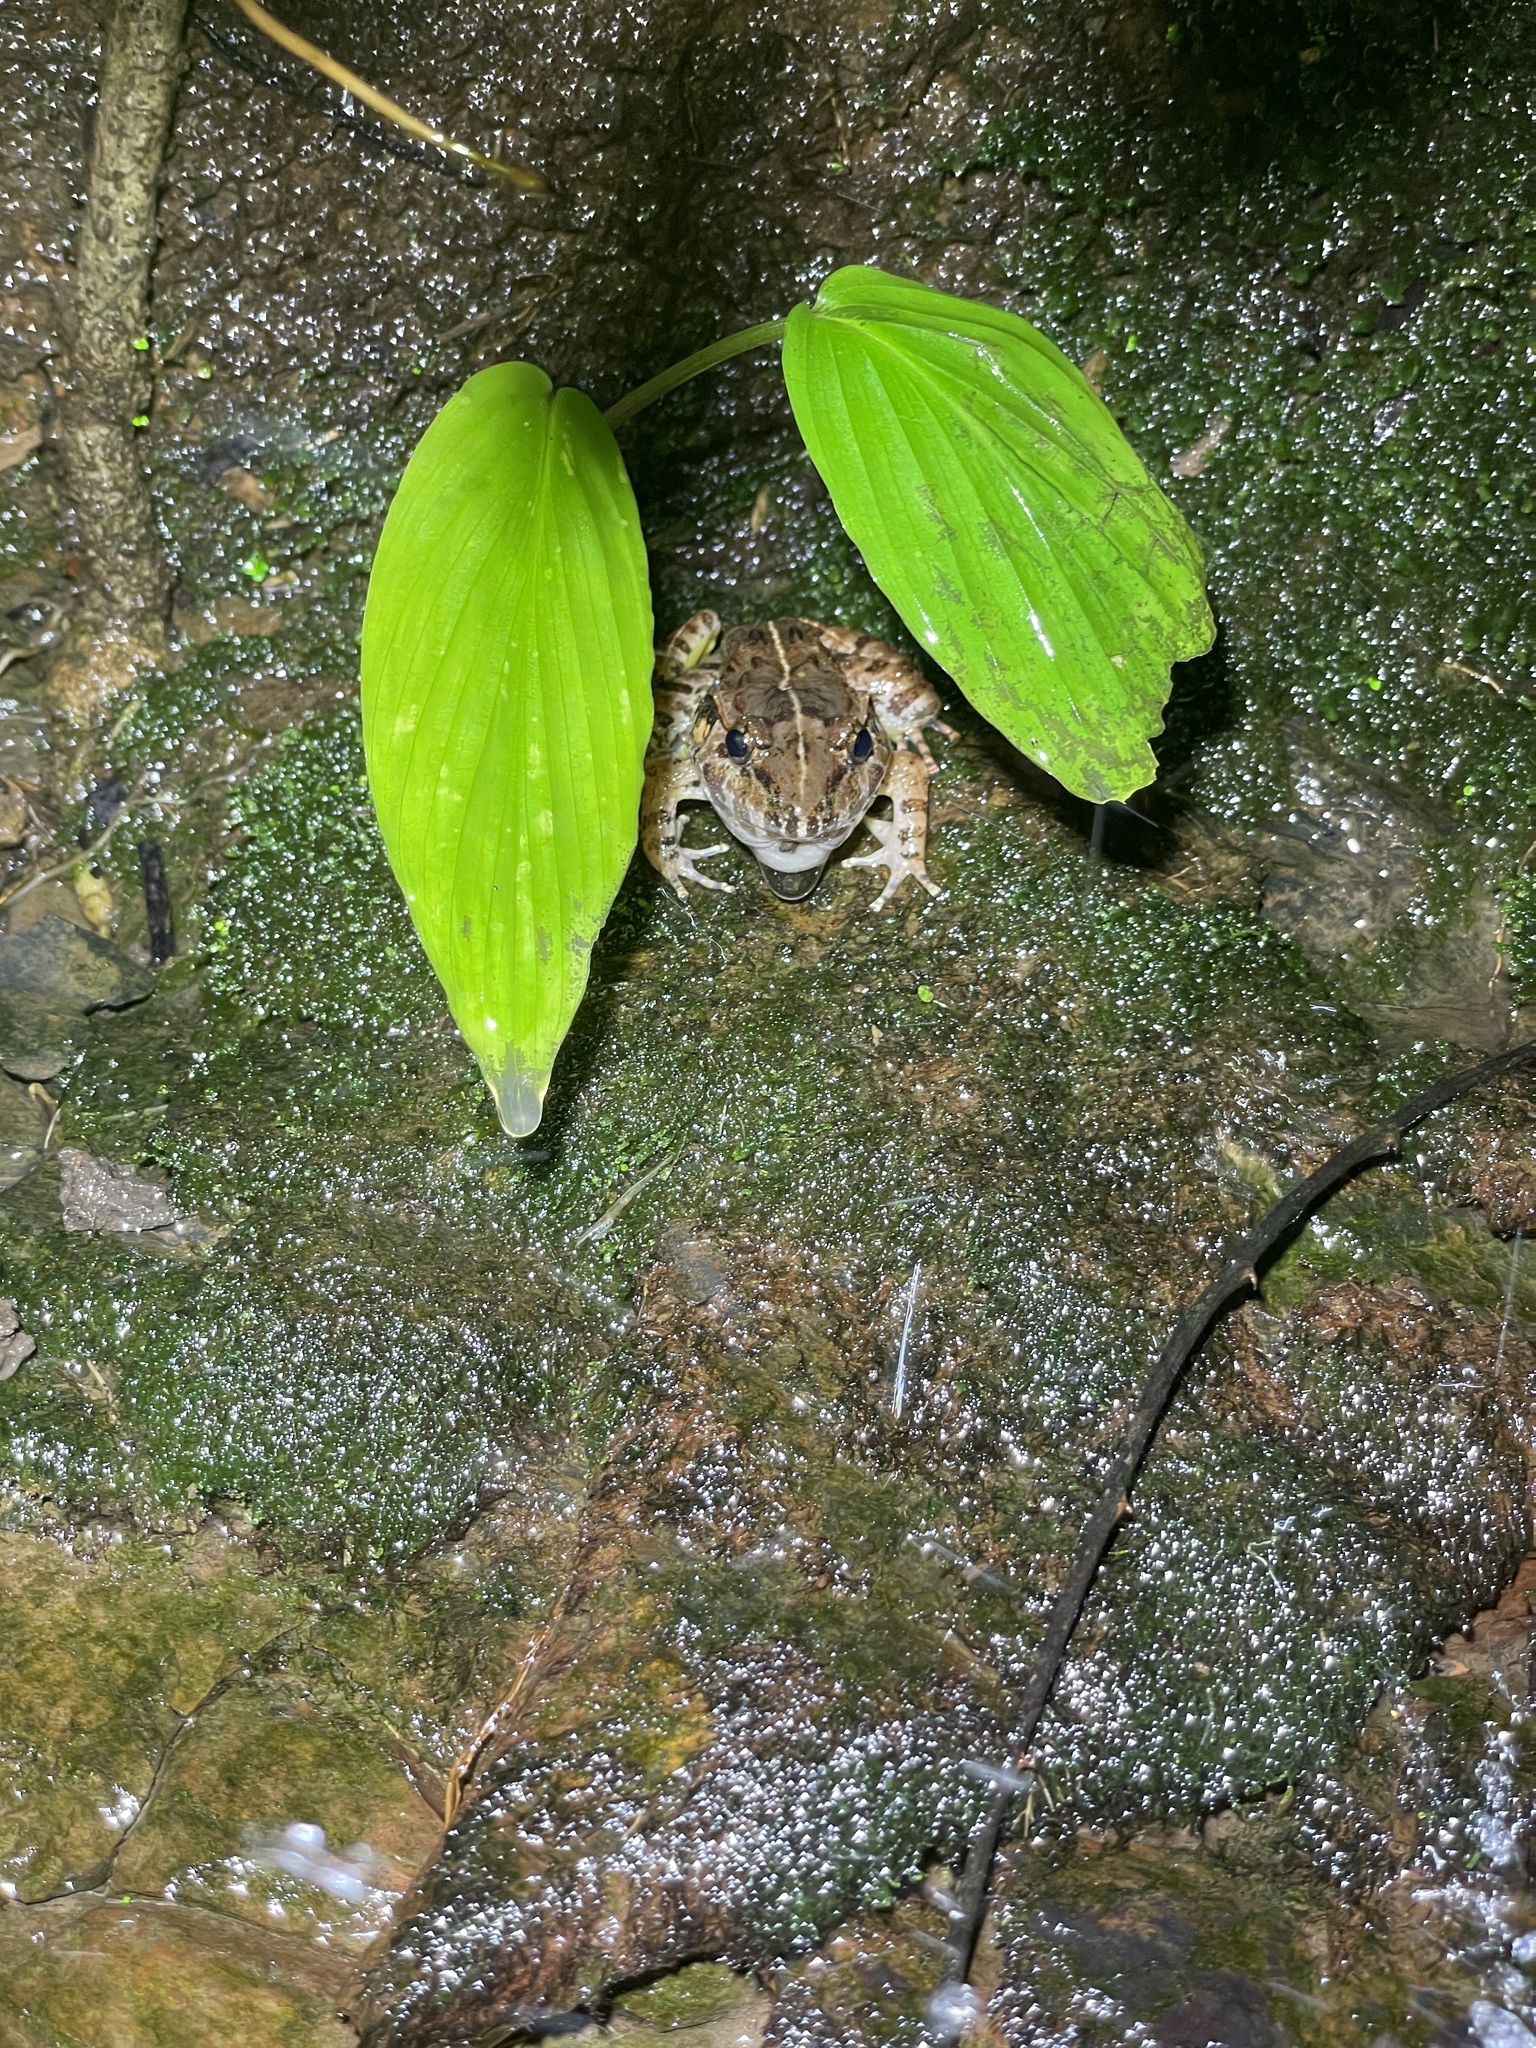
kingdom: Animalia
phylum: Chordata
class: Amphibia
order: Anura
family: Dicroglossidae
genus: Limnonectes
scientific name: Limnonectes macrognathus
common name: Large-headed frog
